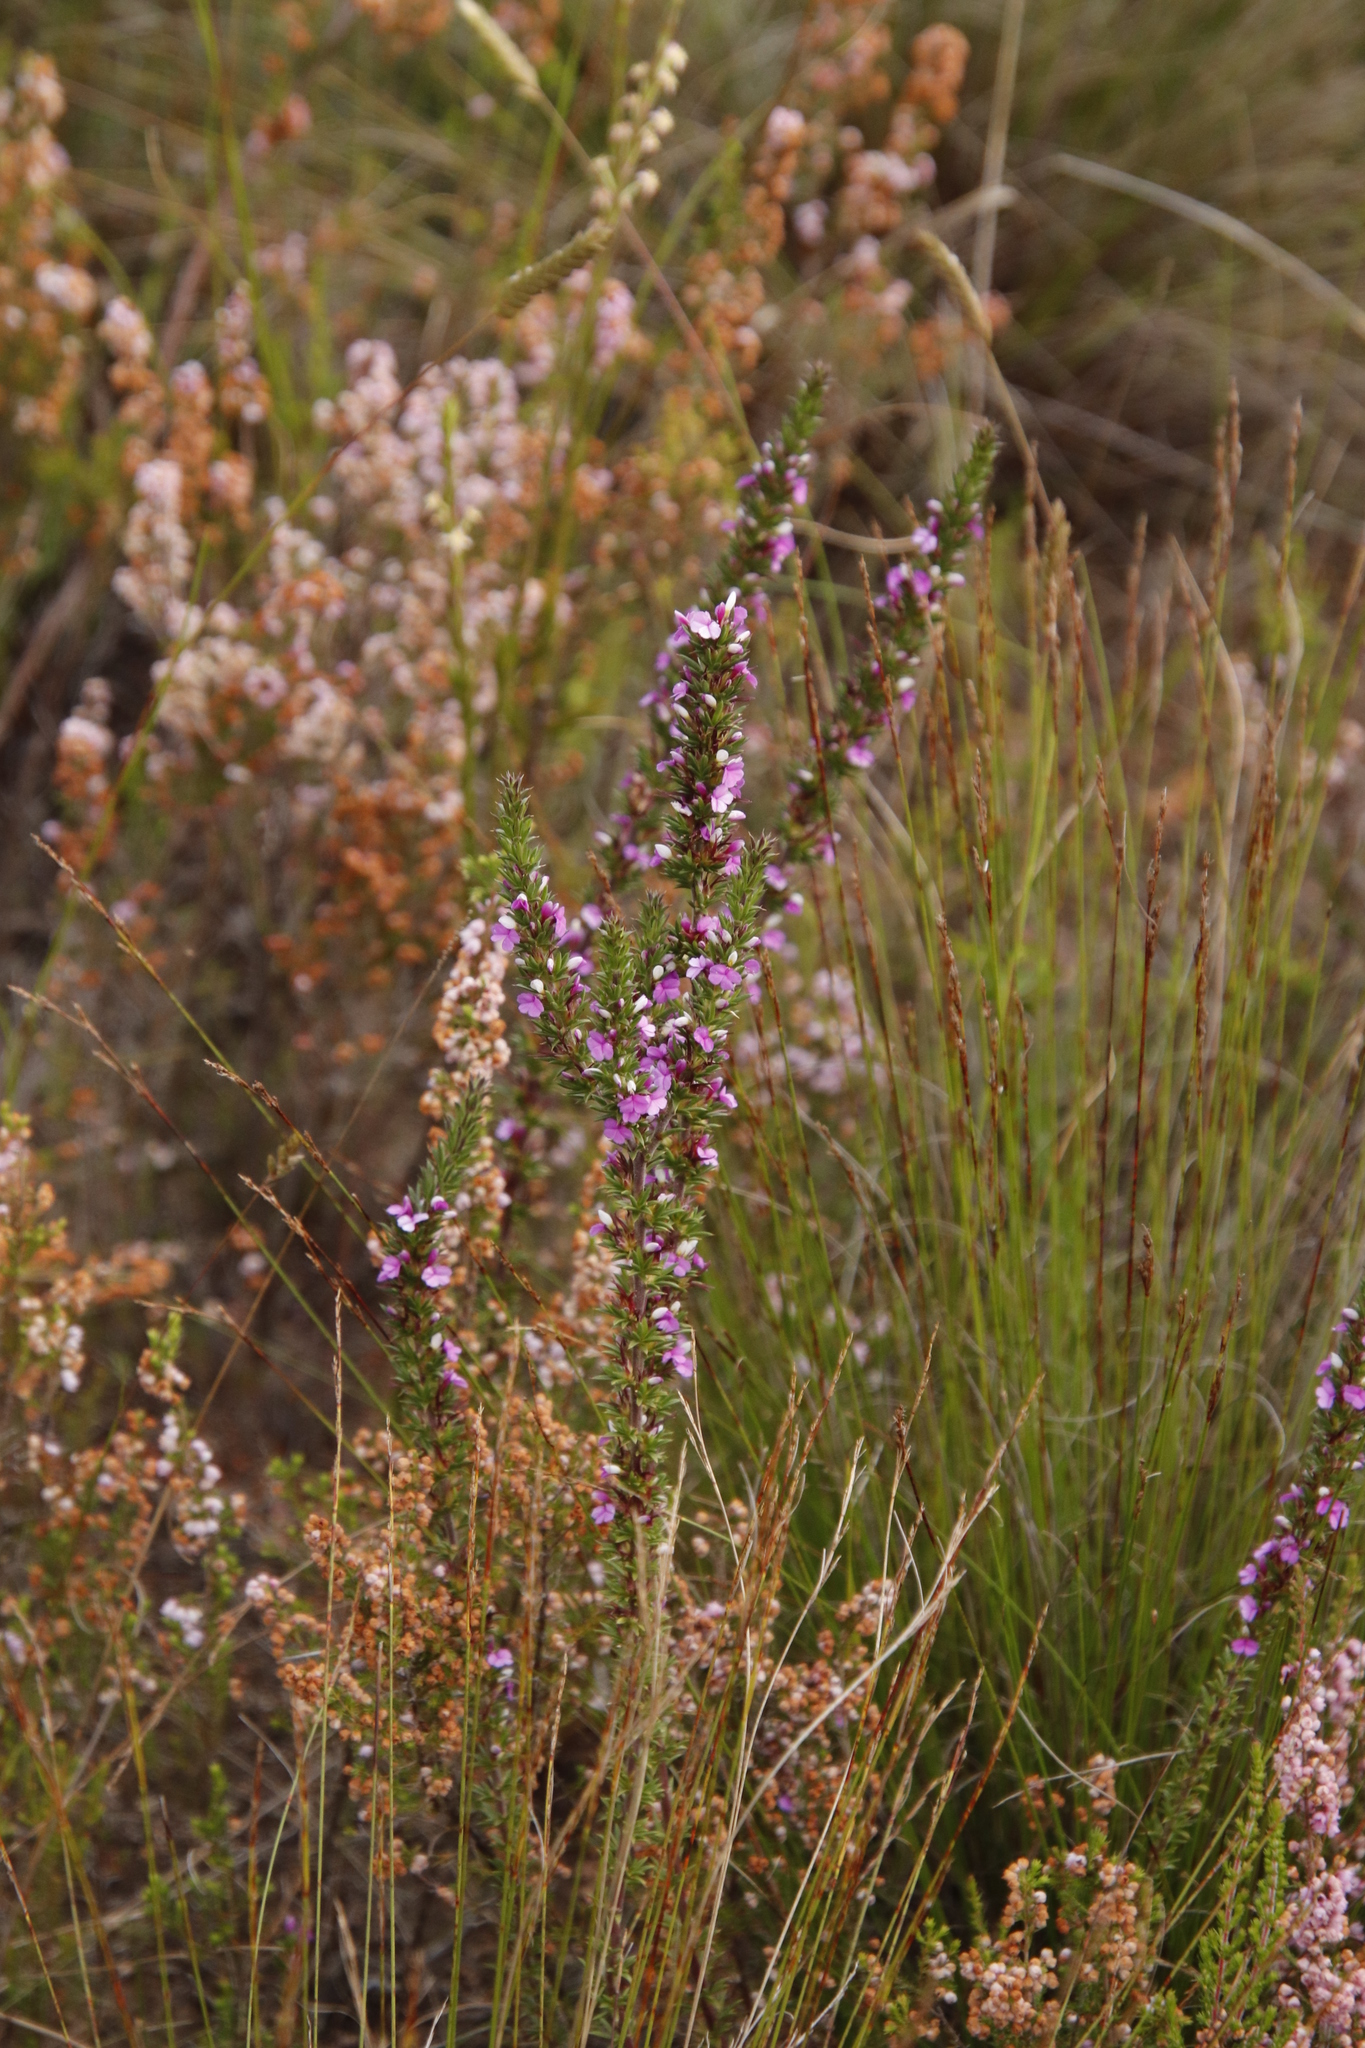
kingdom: Plantae
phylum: Tracheophyta
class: Magnoliopsida
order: Fabales
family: Polygalaceae
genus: Muraltia
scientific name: Muraltia heisteria
